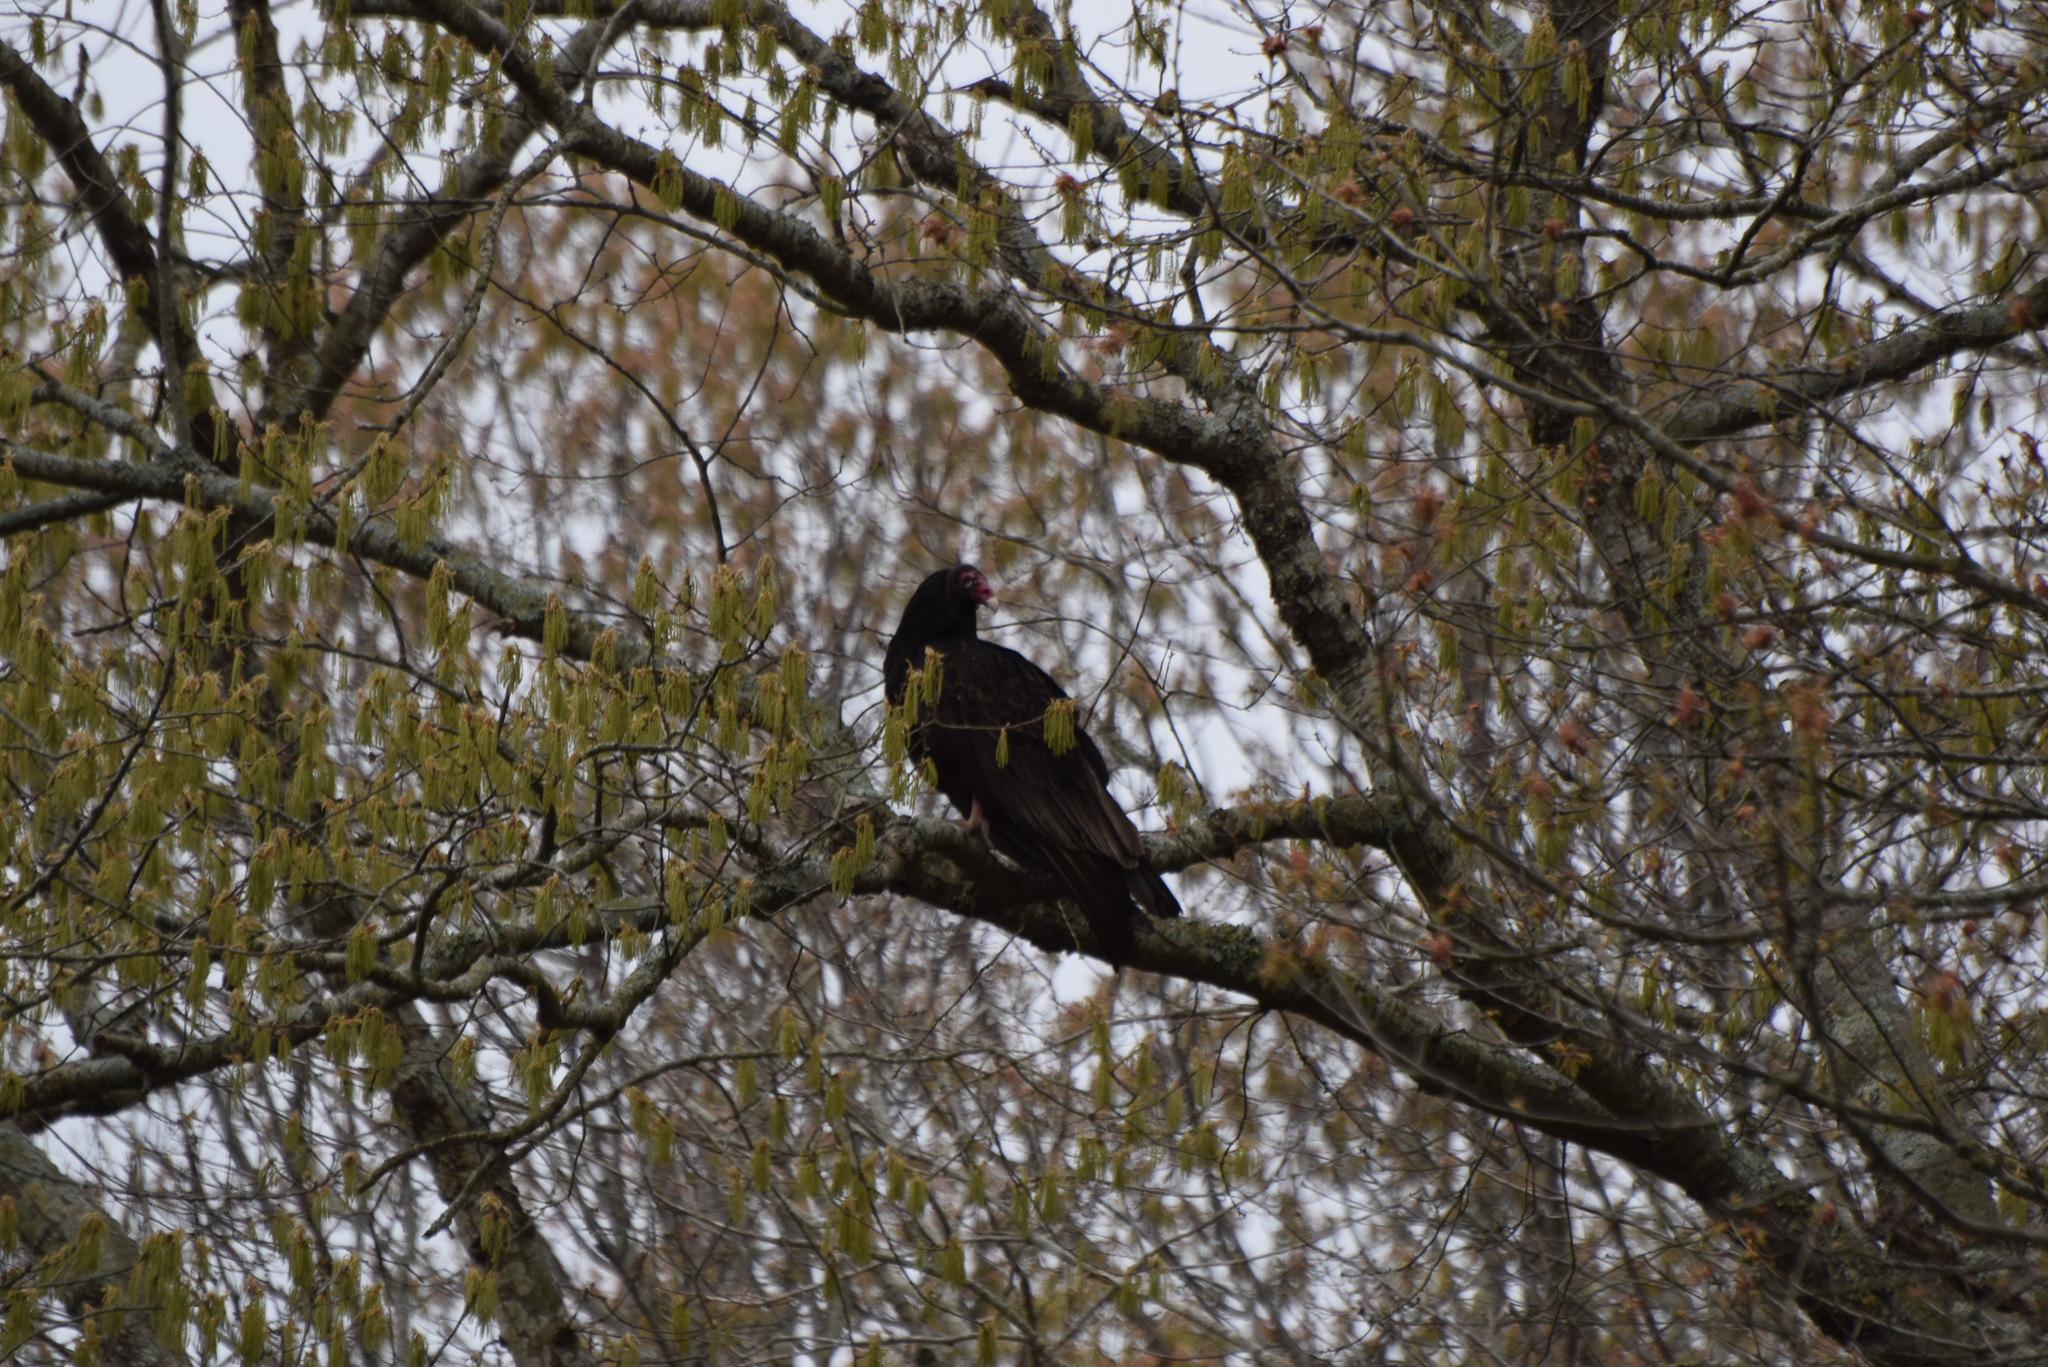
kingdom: Animalia
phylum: Chordata
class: Aves
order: Accipitriformes
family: Cathartidae
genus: Cathartes
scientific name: Cathartes aura
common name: Turkey vulture
